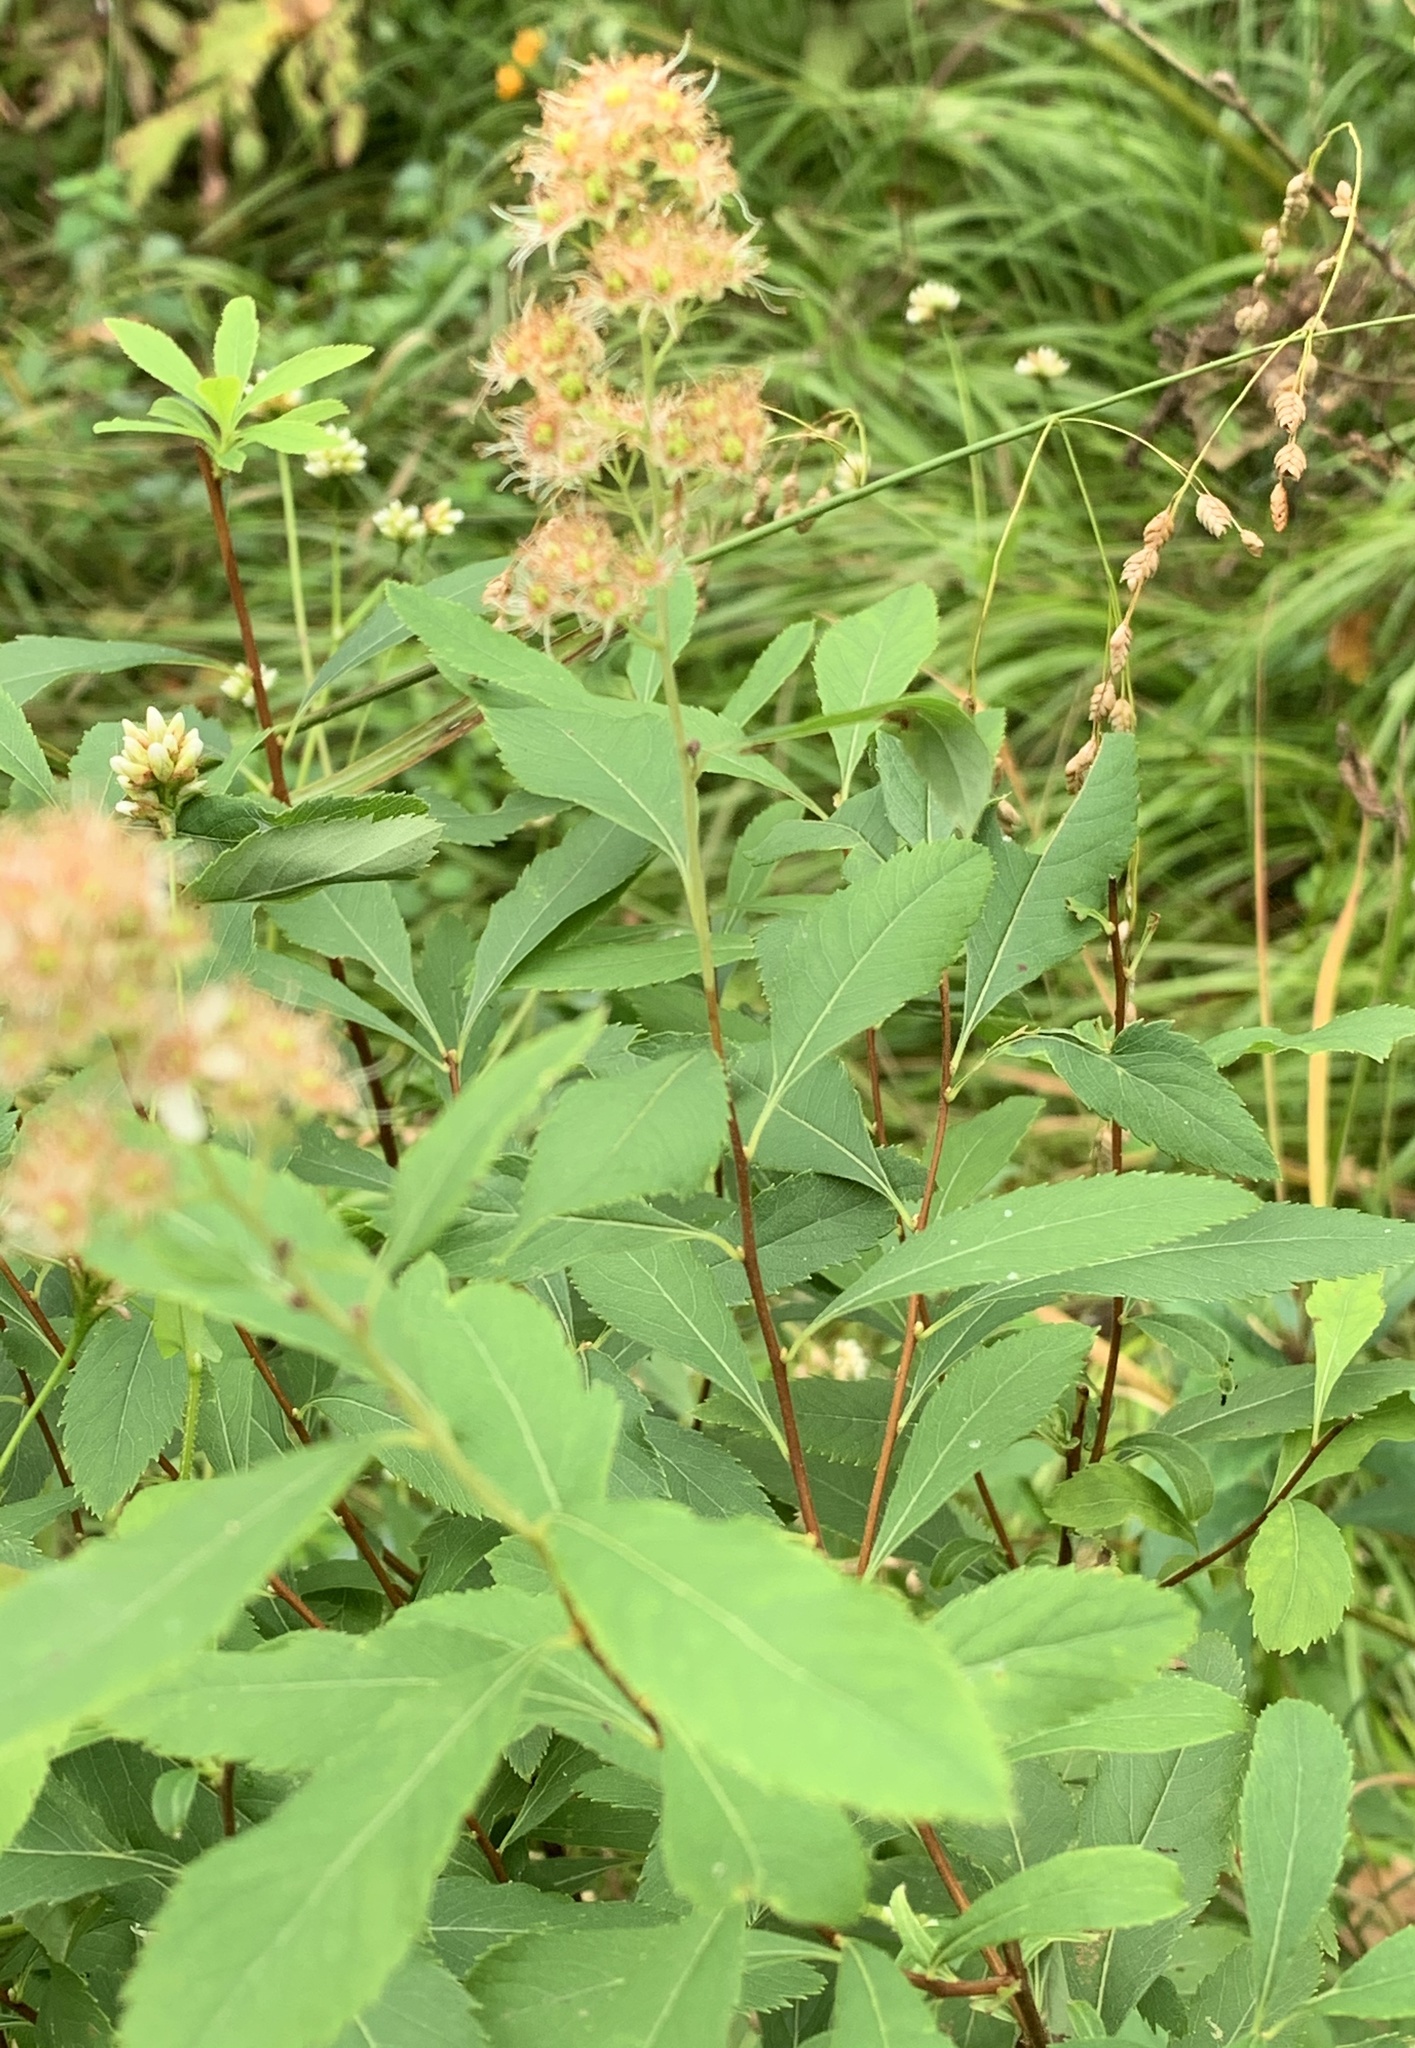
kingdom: Plantae
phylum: Tracheophyta
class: Magnoliopsida
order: Rosales
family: Rosaceae
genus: Spiraea
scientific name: Spiraea alba
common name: Pale bridewort
